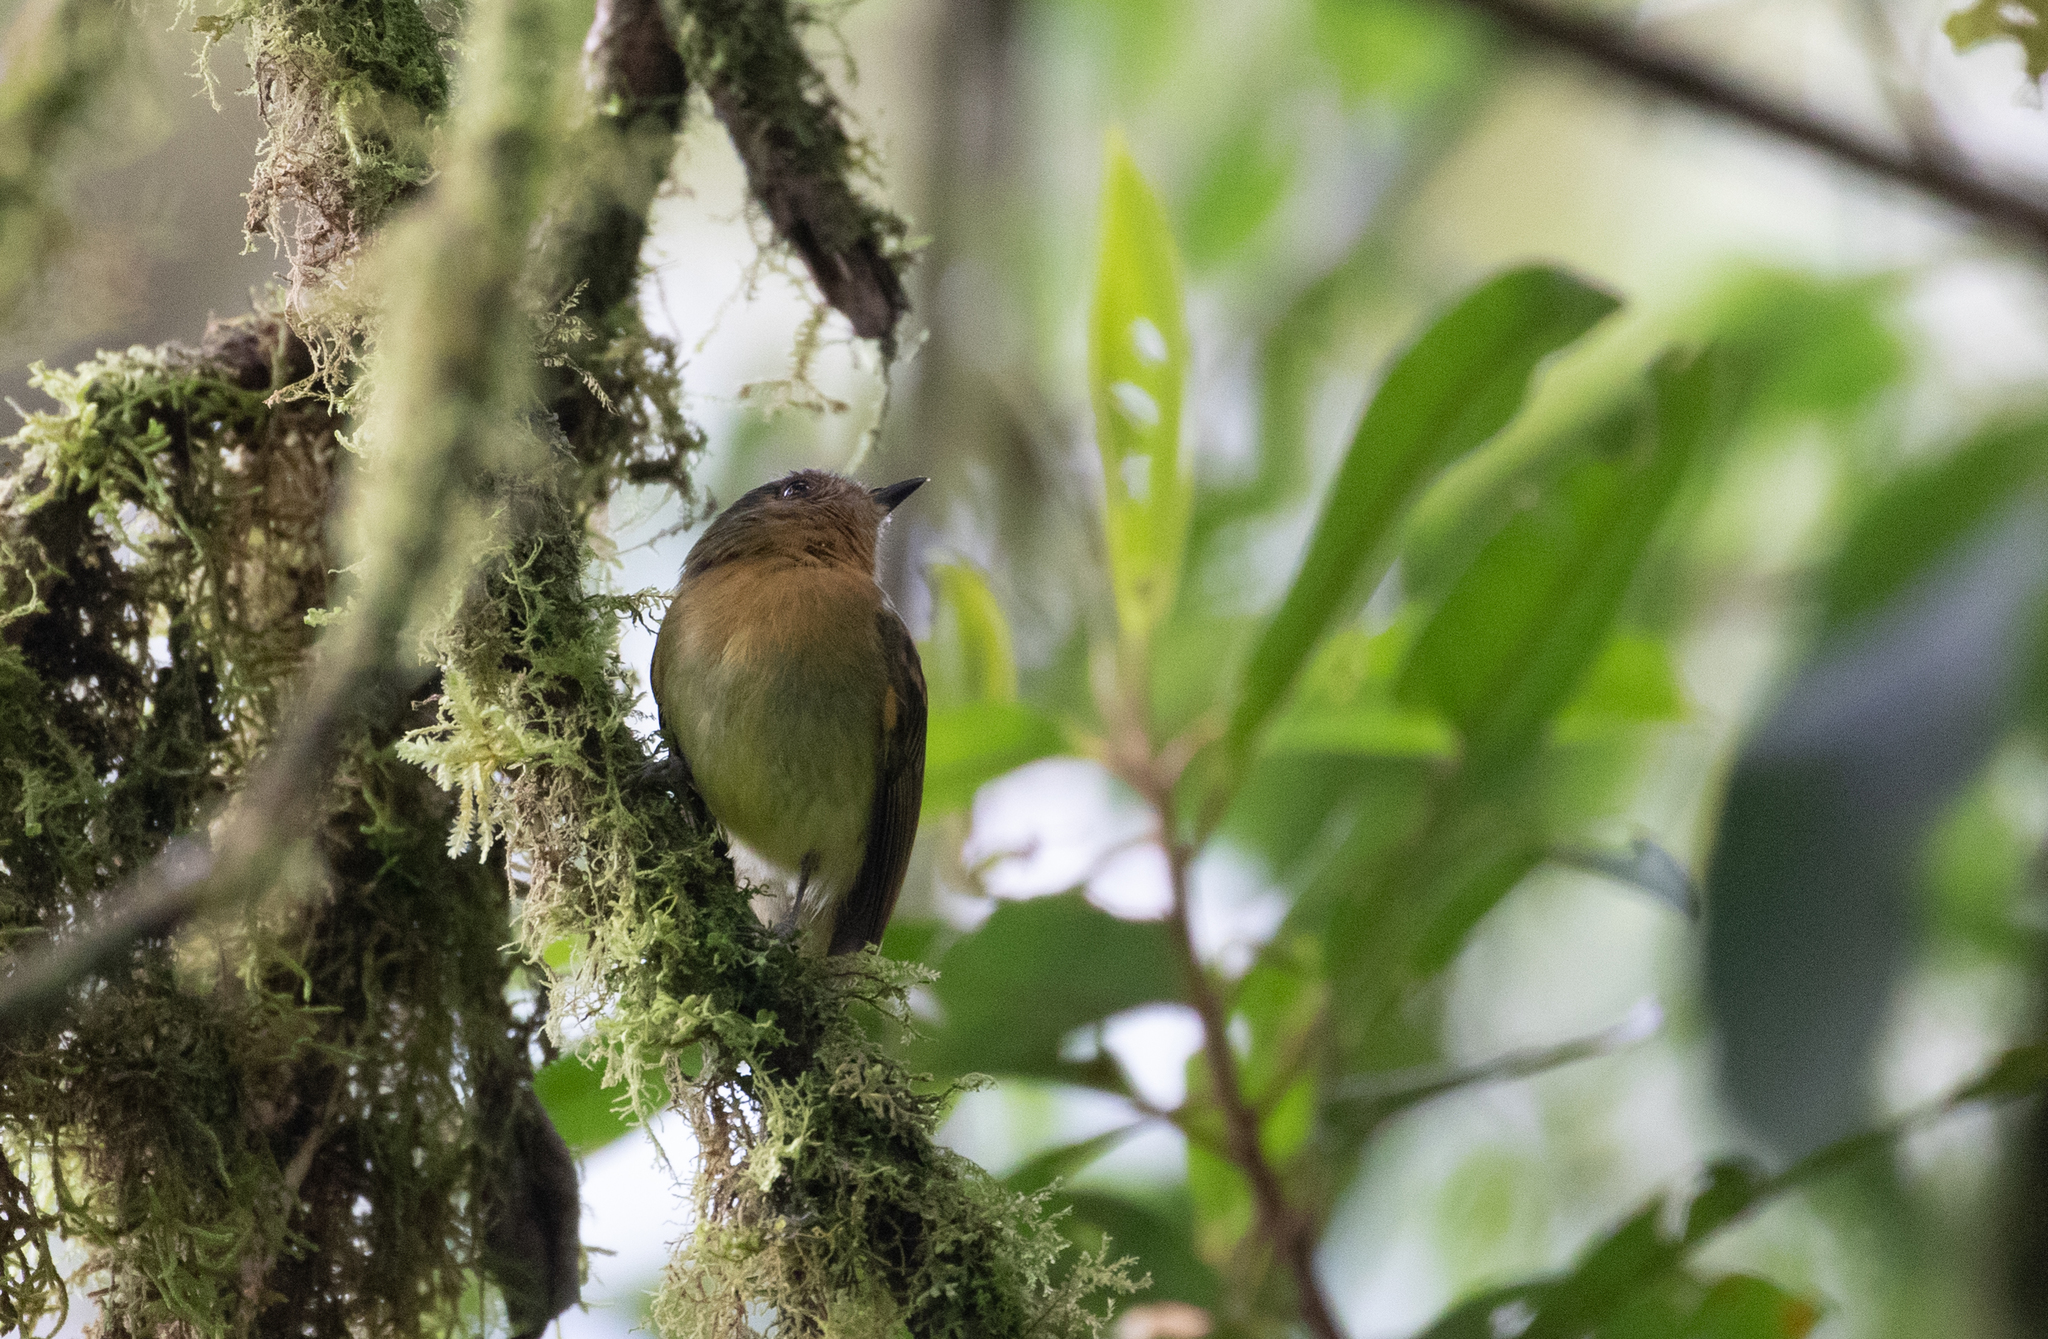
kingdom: Animalia
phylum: Chordata
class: Aves
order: Passeriformes
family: Tyrannidae
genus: Leptopogon
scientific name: Leptopogon rufipectus
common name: Rufous-breasted flycatcher
